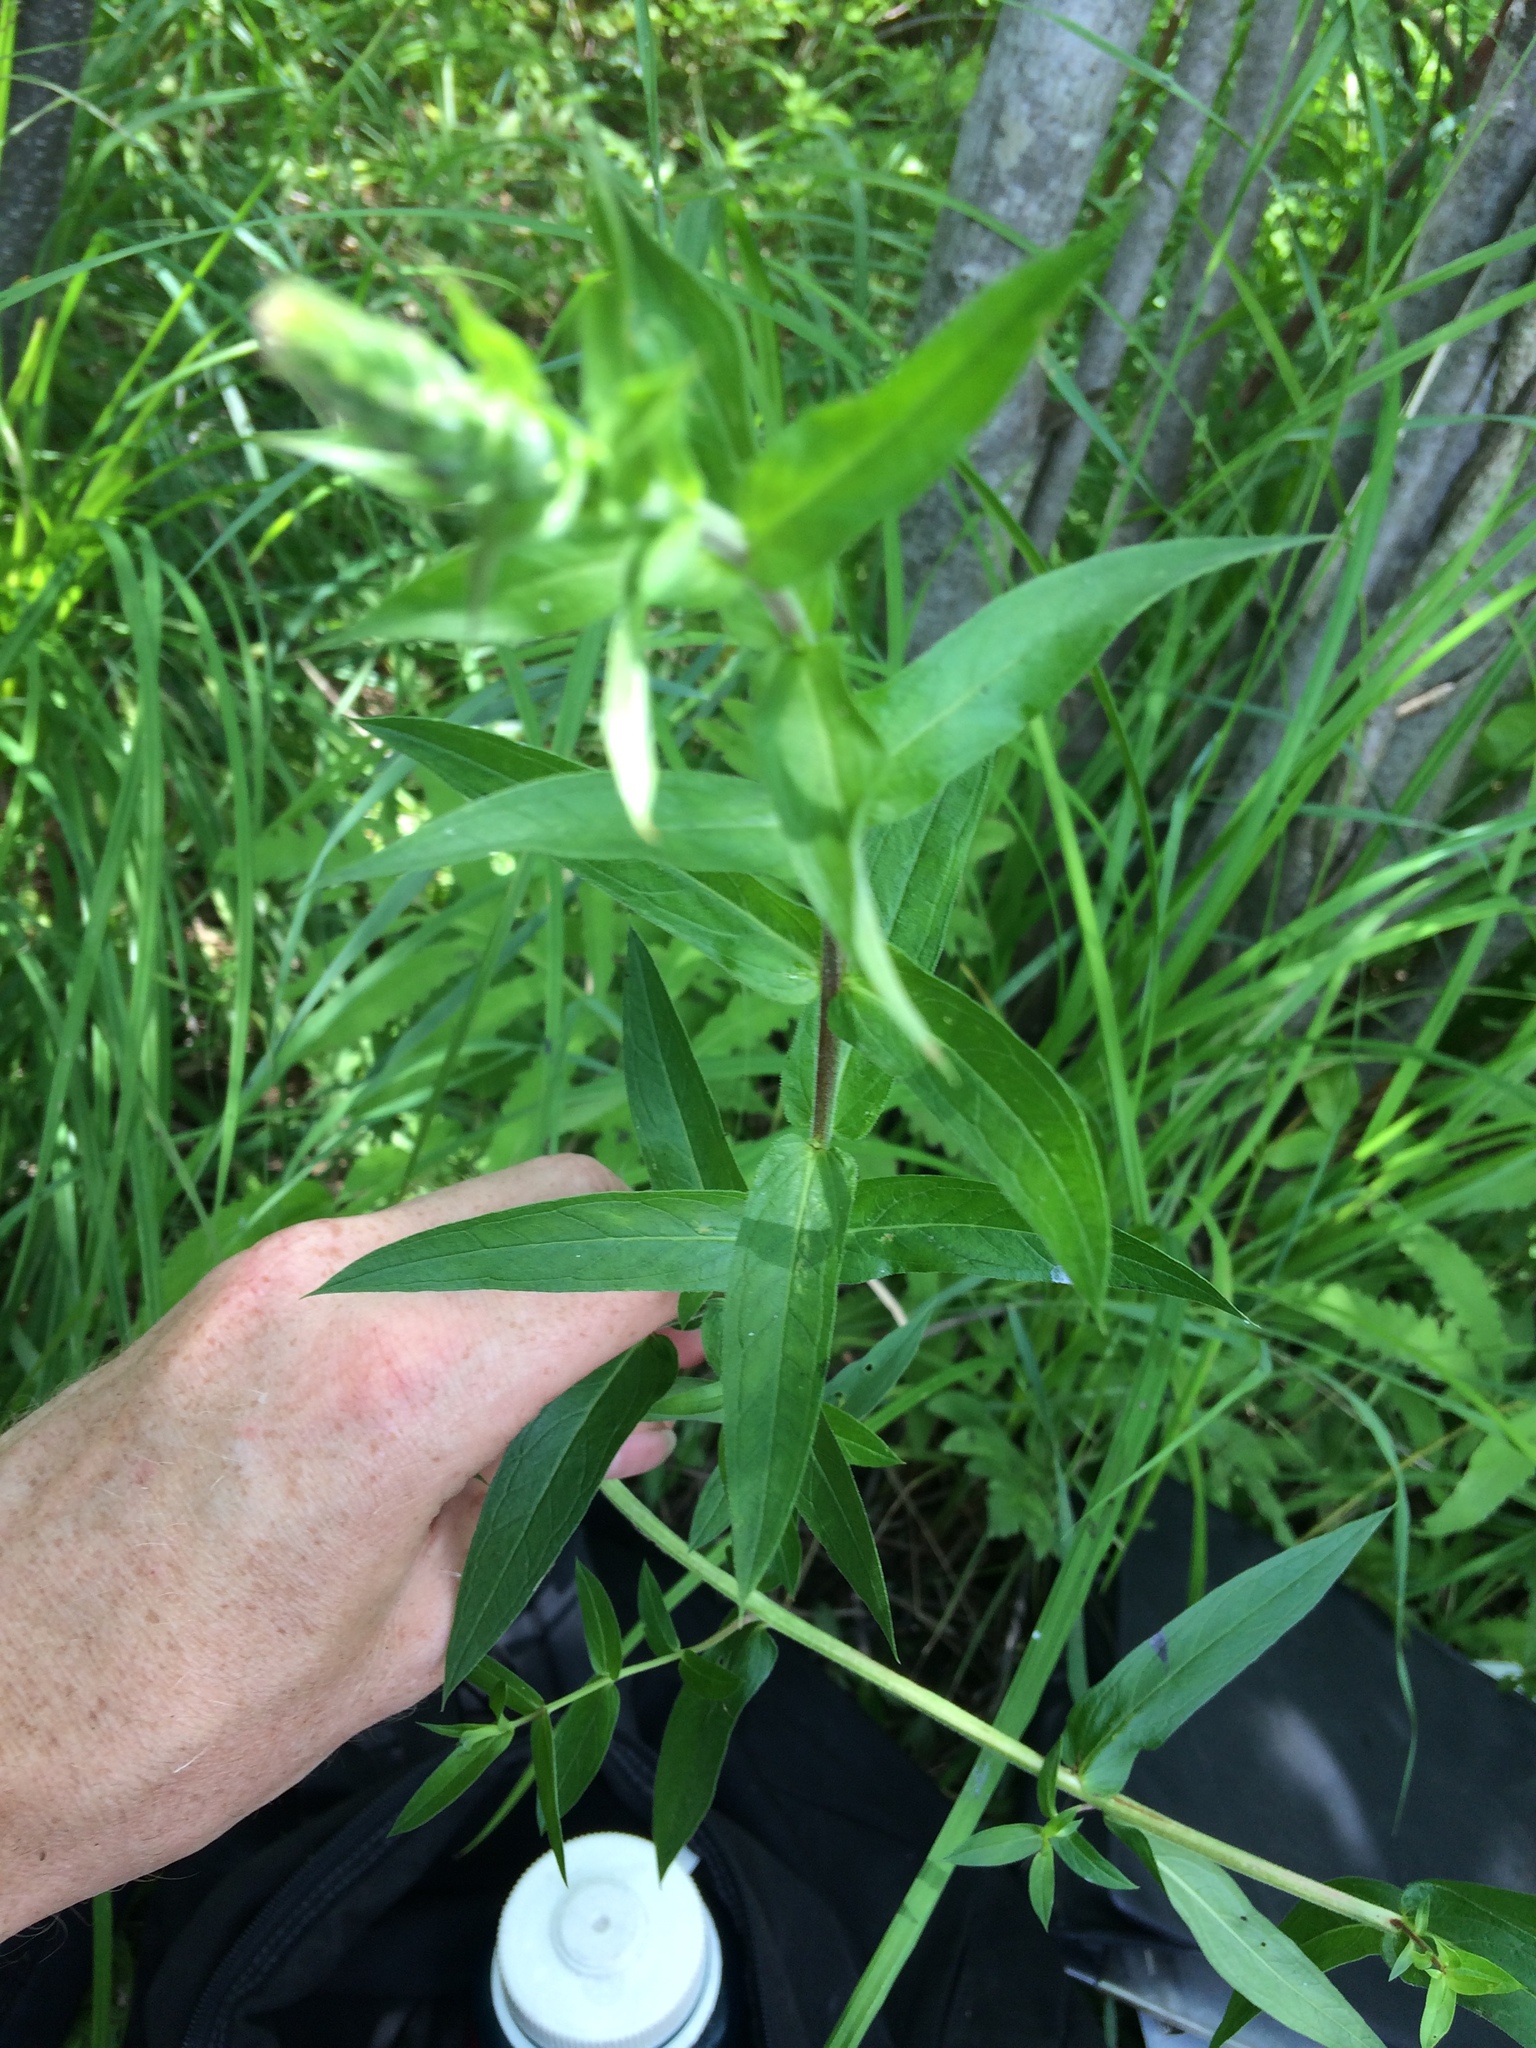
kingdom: Plantae
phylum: Tracheophyta
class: Magnoliopsida
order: Myrtales
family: Lythraceae
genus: Lythrum
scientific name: Lythrum salicaria
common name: Purple loosestrife
